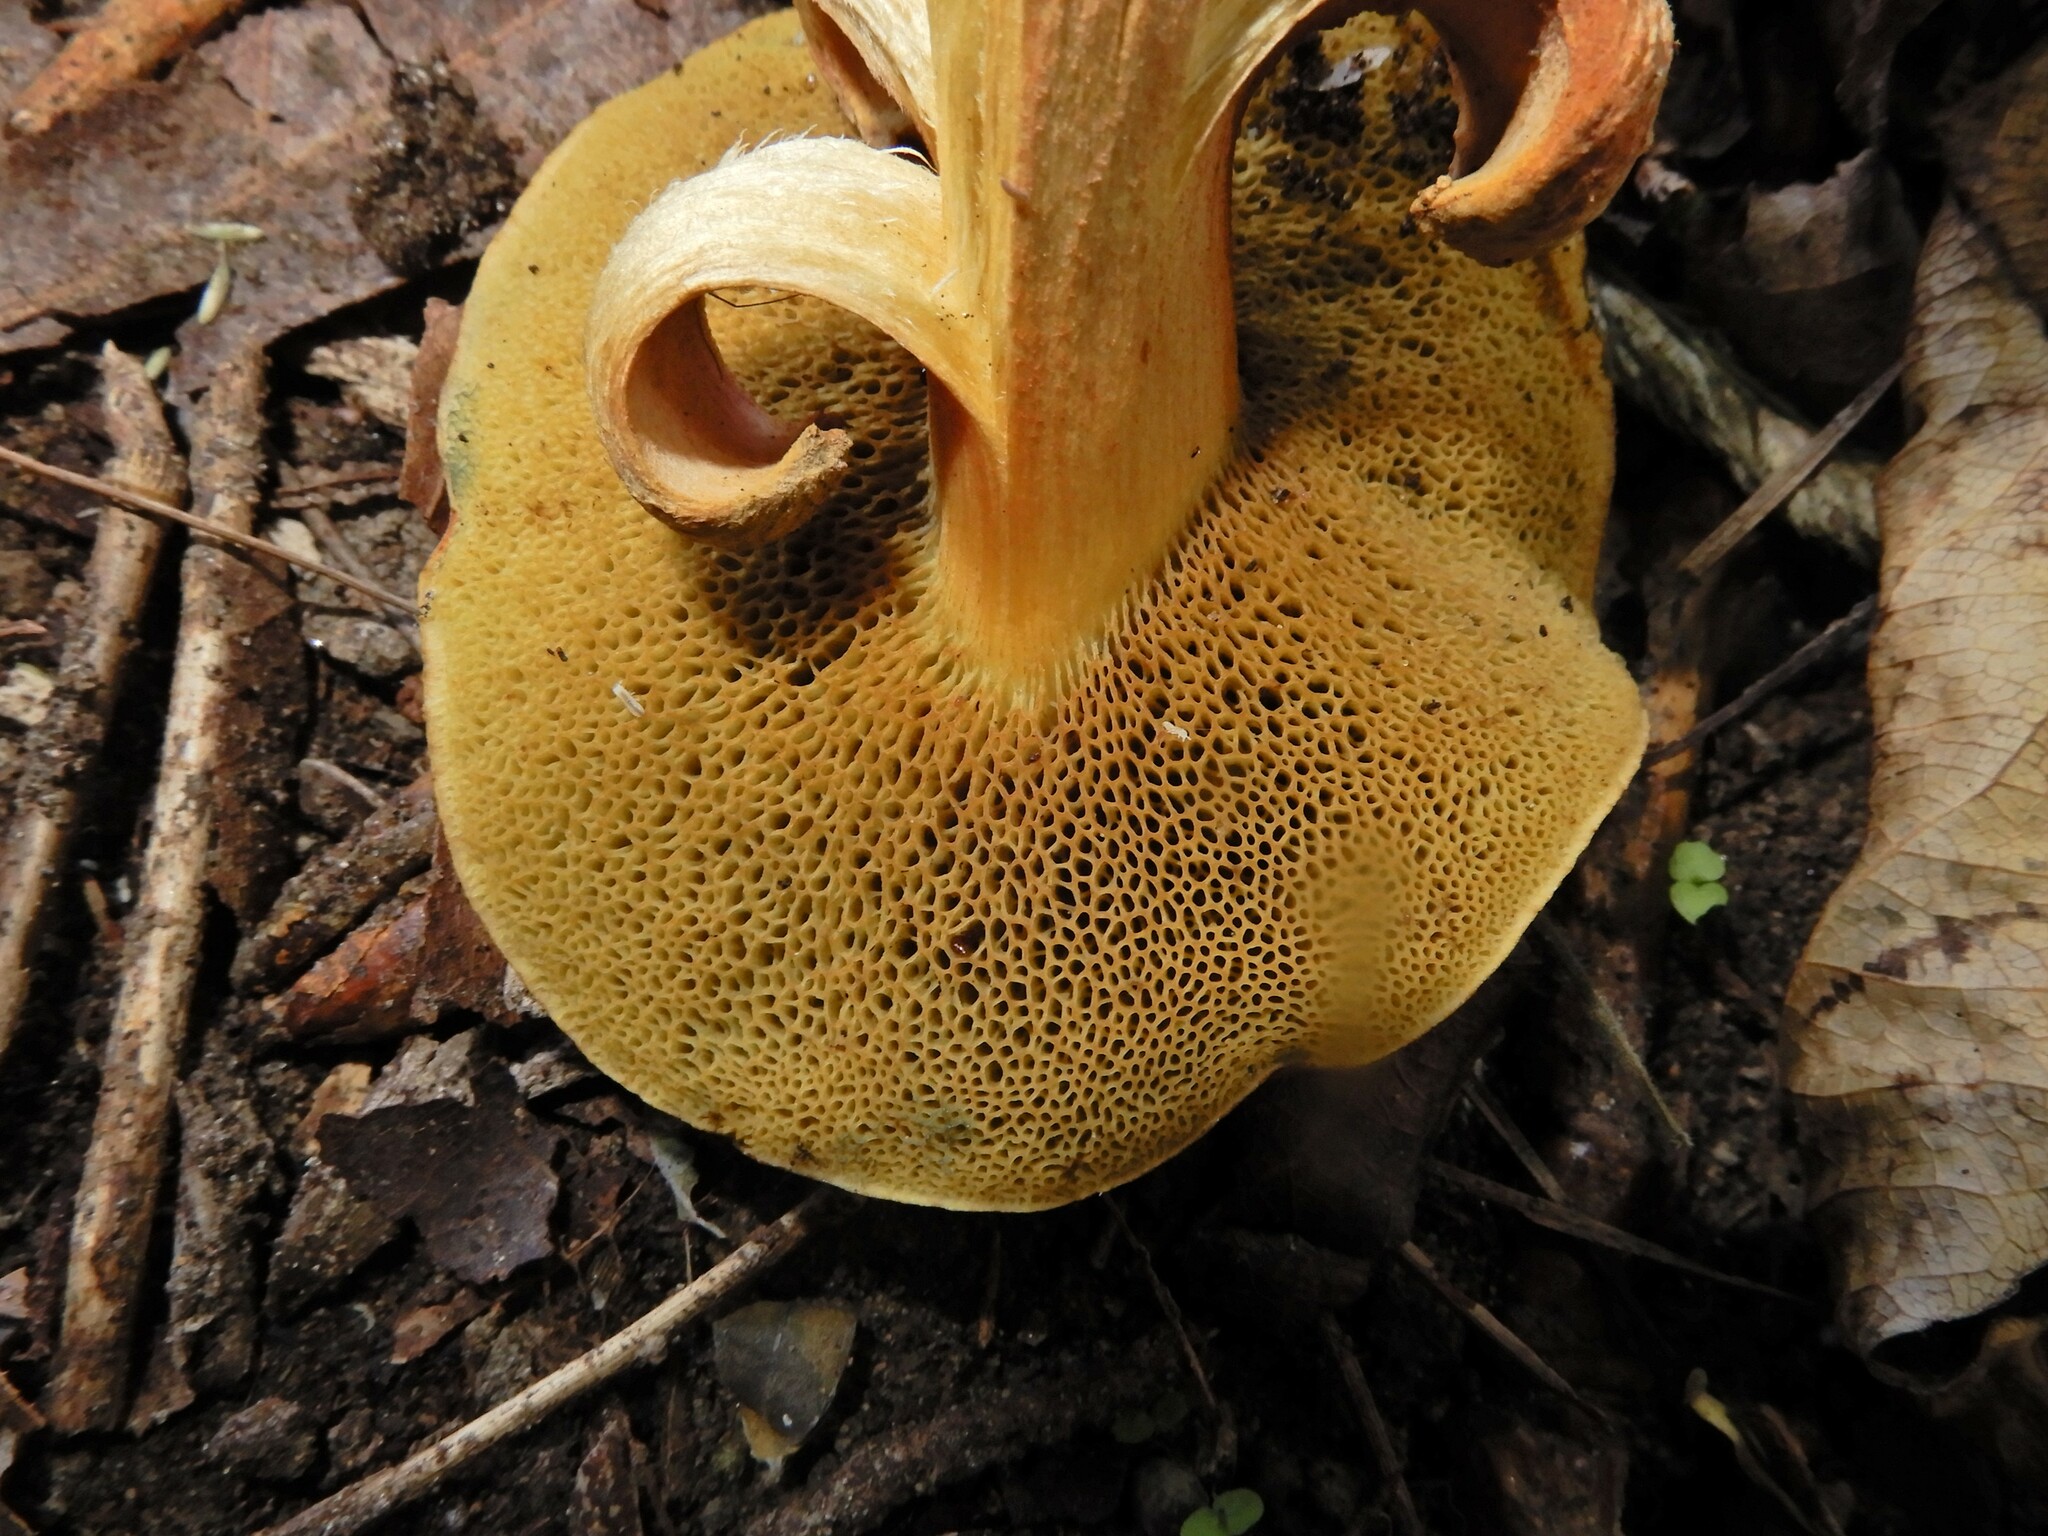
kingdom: Fungi
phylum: Basidiomycota
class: Agaricomycetes
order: Boletales
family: Boletaceae
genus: Xerocomellus
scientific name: Xerocomellus ripariellus
